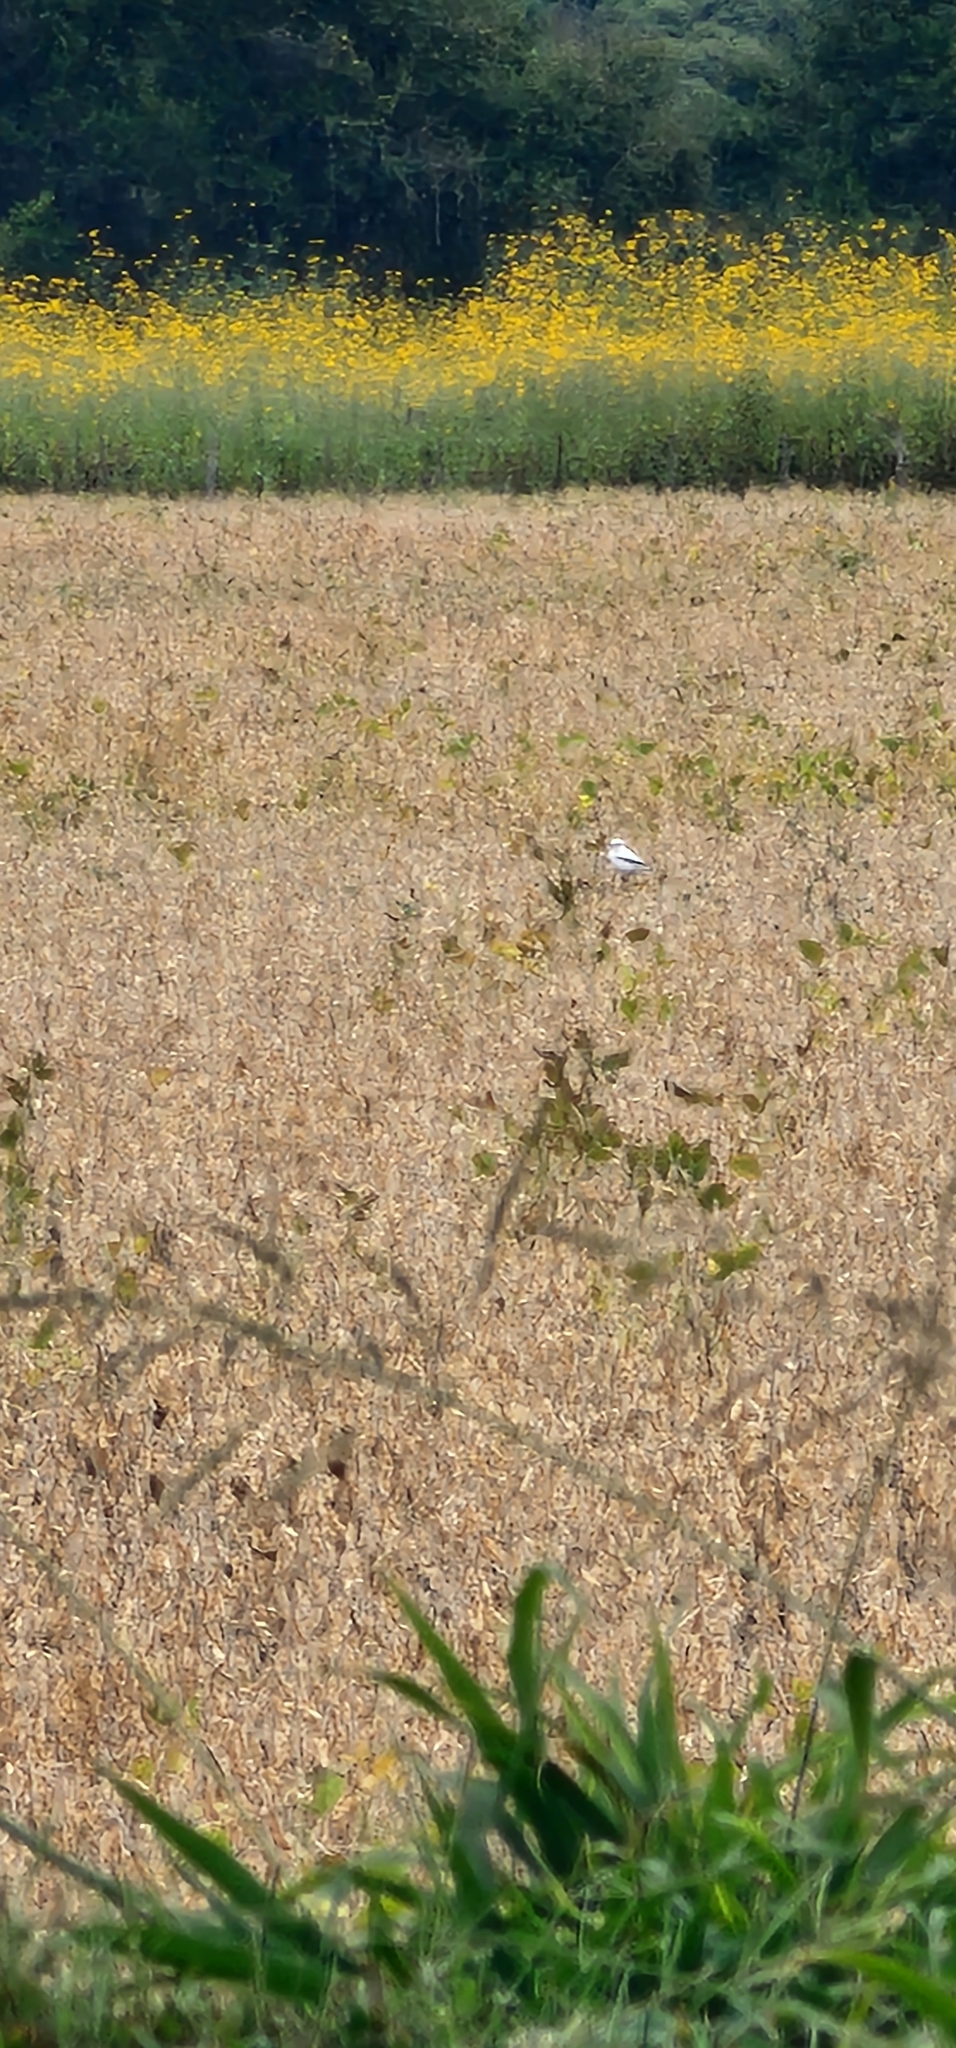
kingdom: Animalia
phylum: Chordata
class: Aves
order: Passeriformes
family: Tyrannidae
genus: Xolmis
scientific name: Xolmis irupero
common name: White monjita
